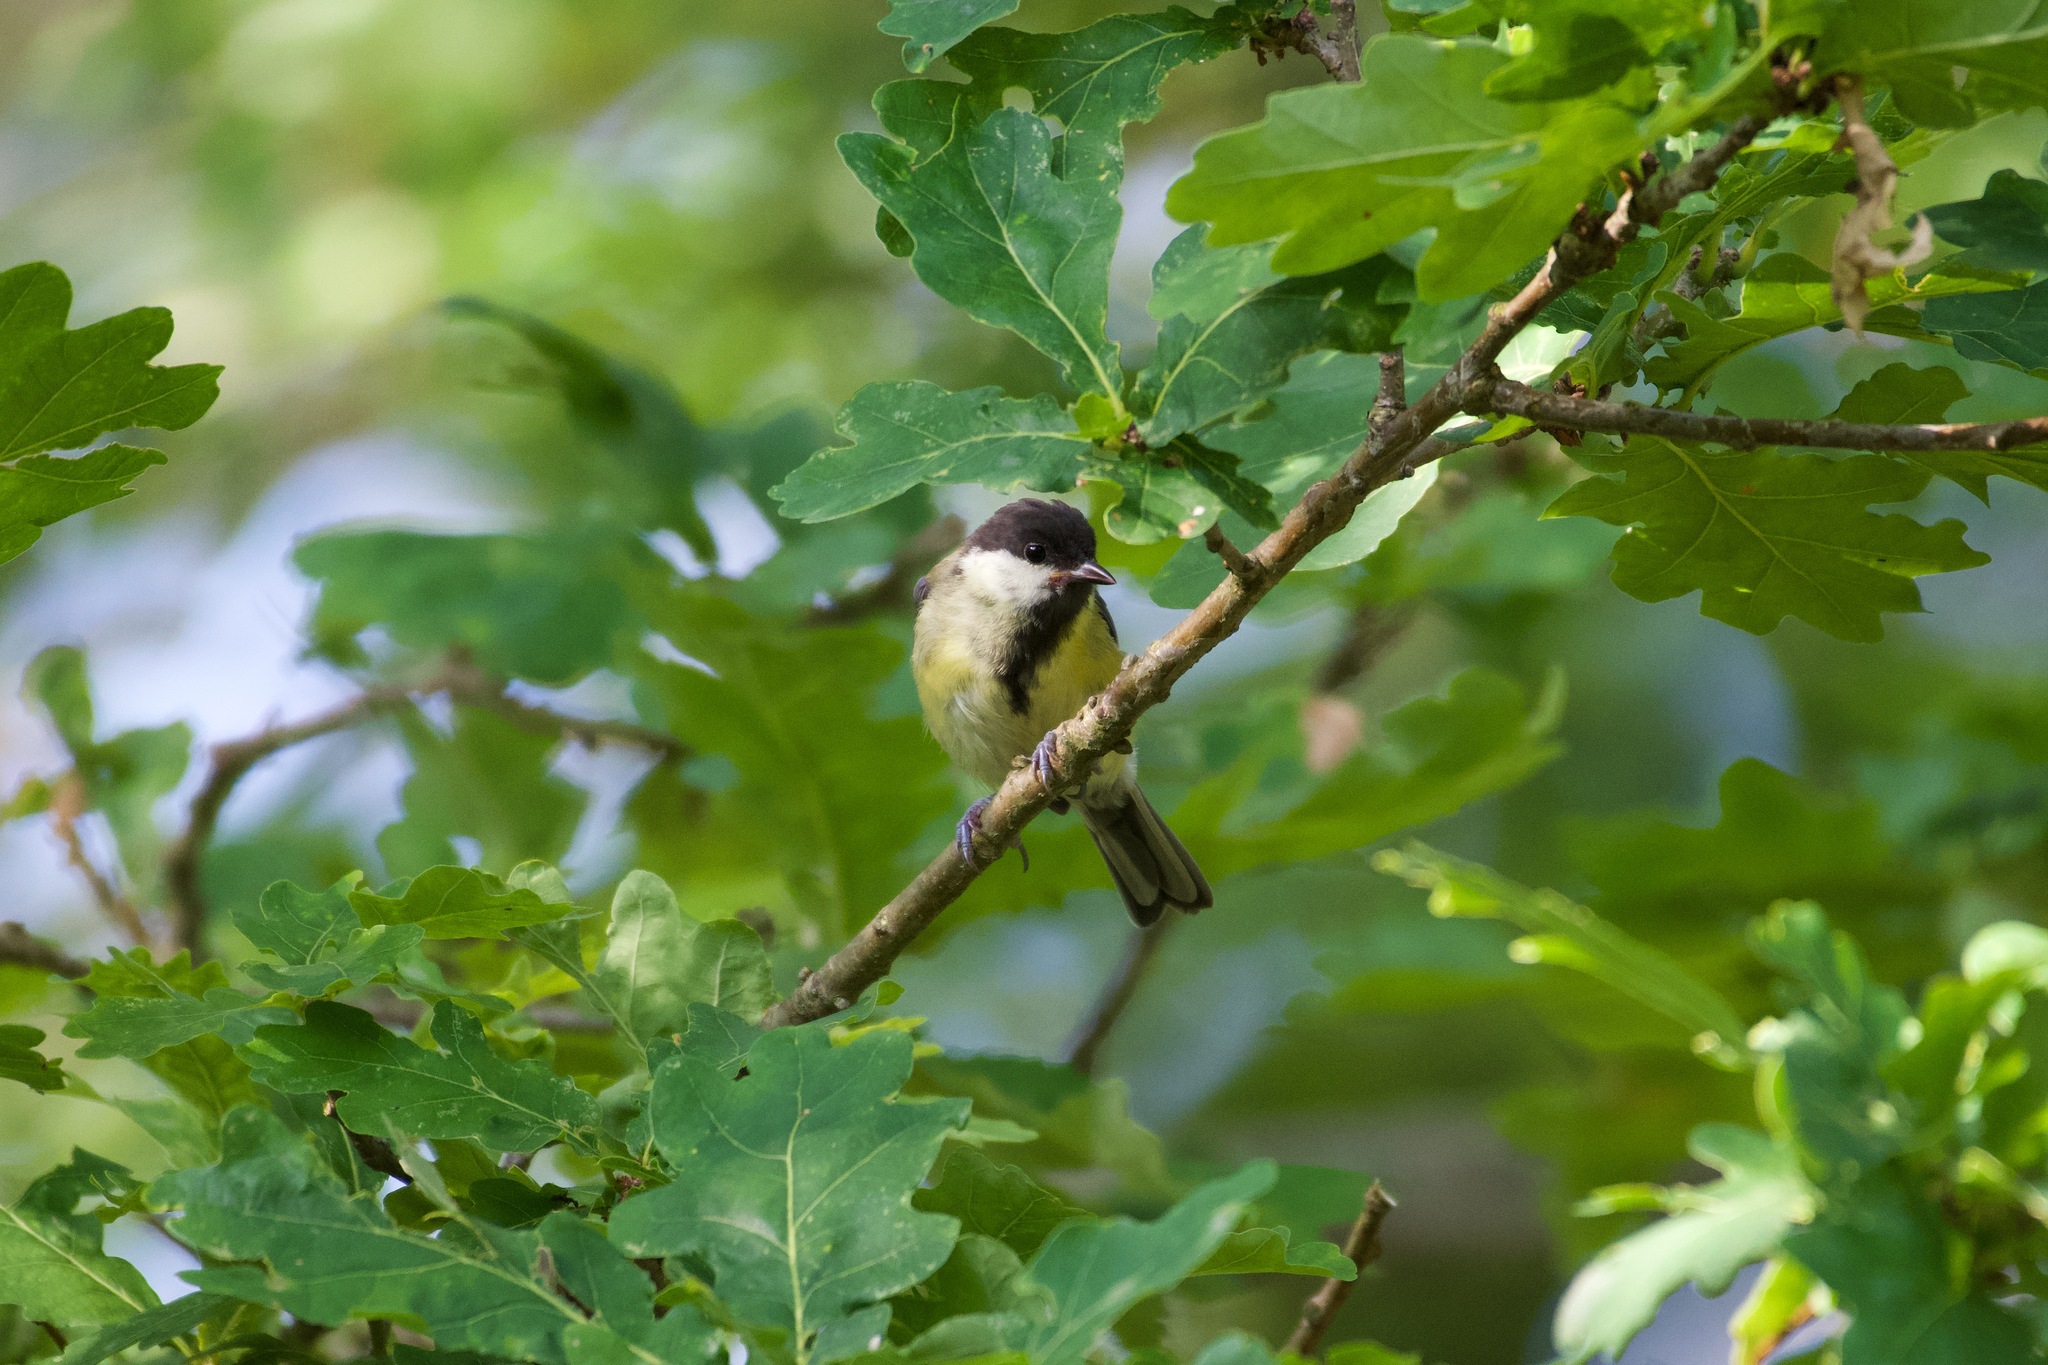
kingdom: Animalia
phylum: Chordata
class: Aves
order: Passeriformes
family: Paridae
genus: Parus
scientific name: Parus major
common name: Great tit
